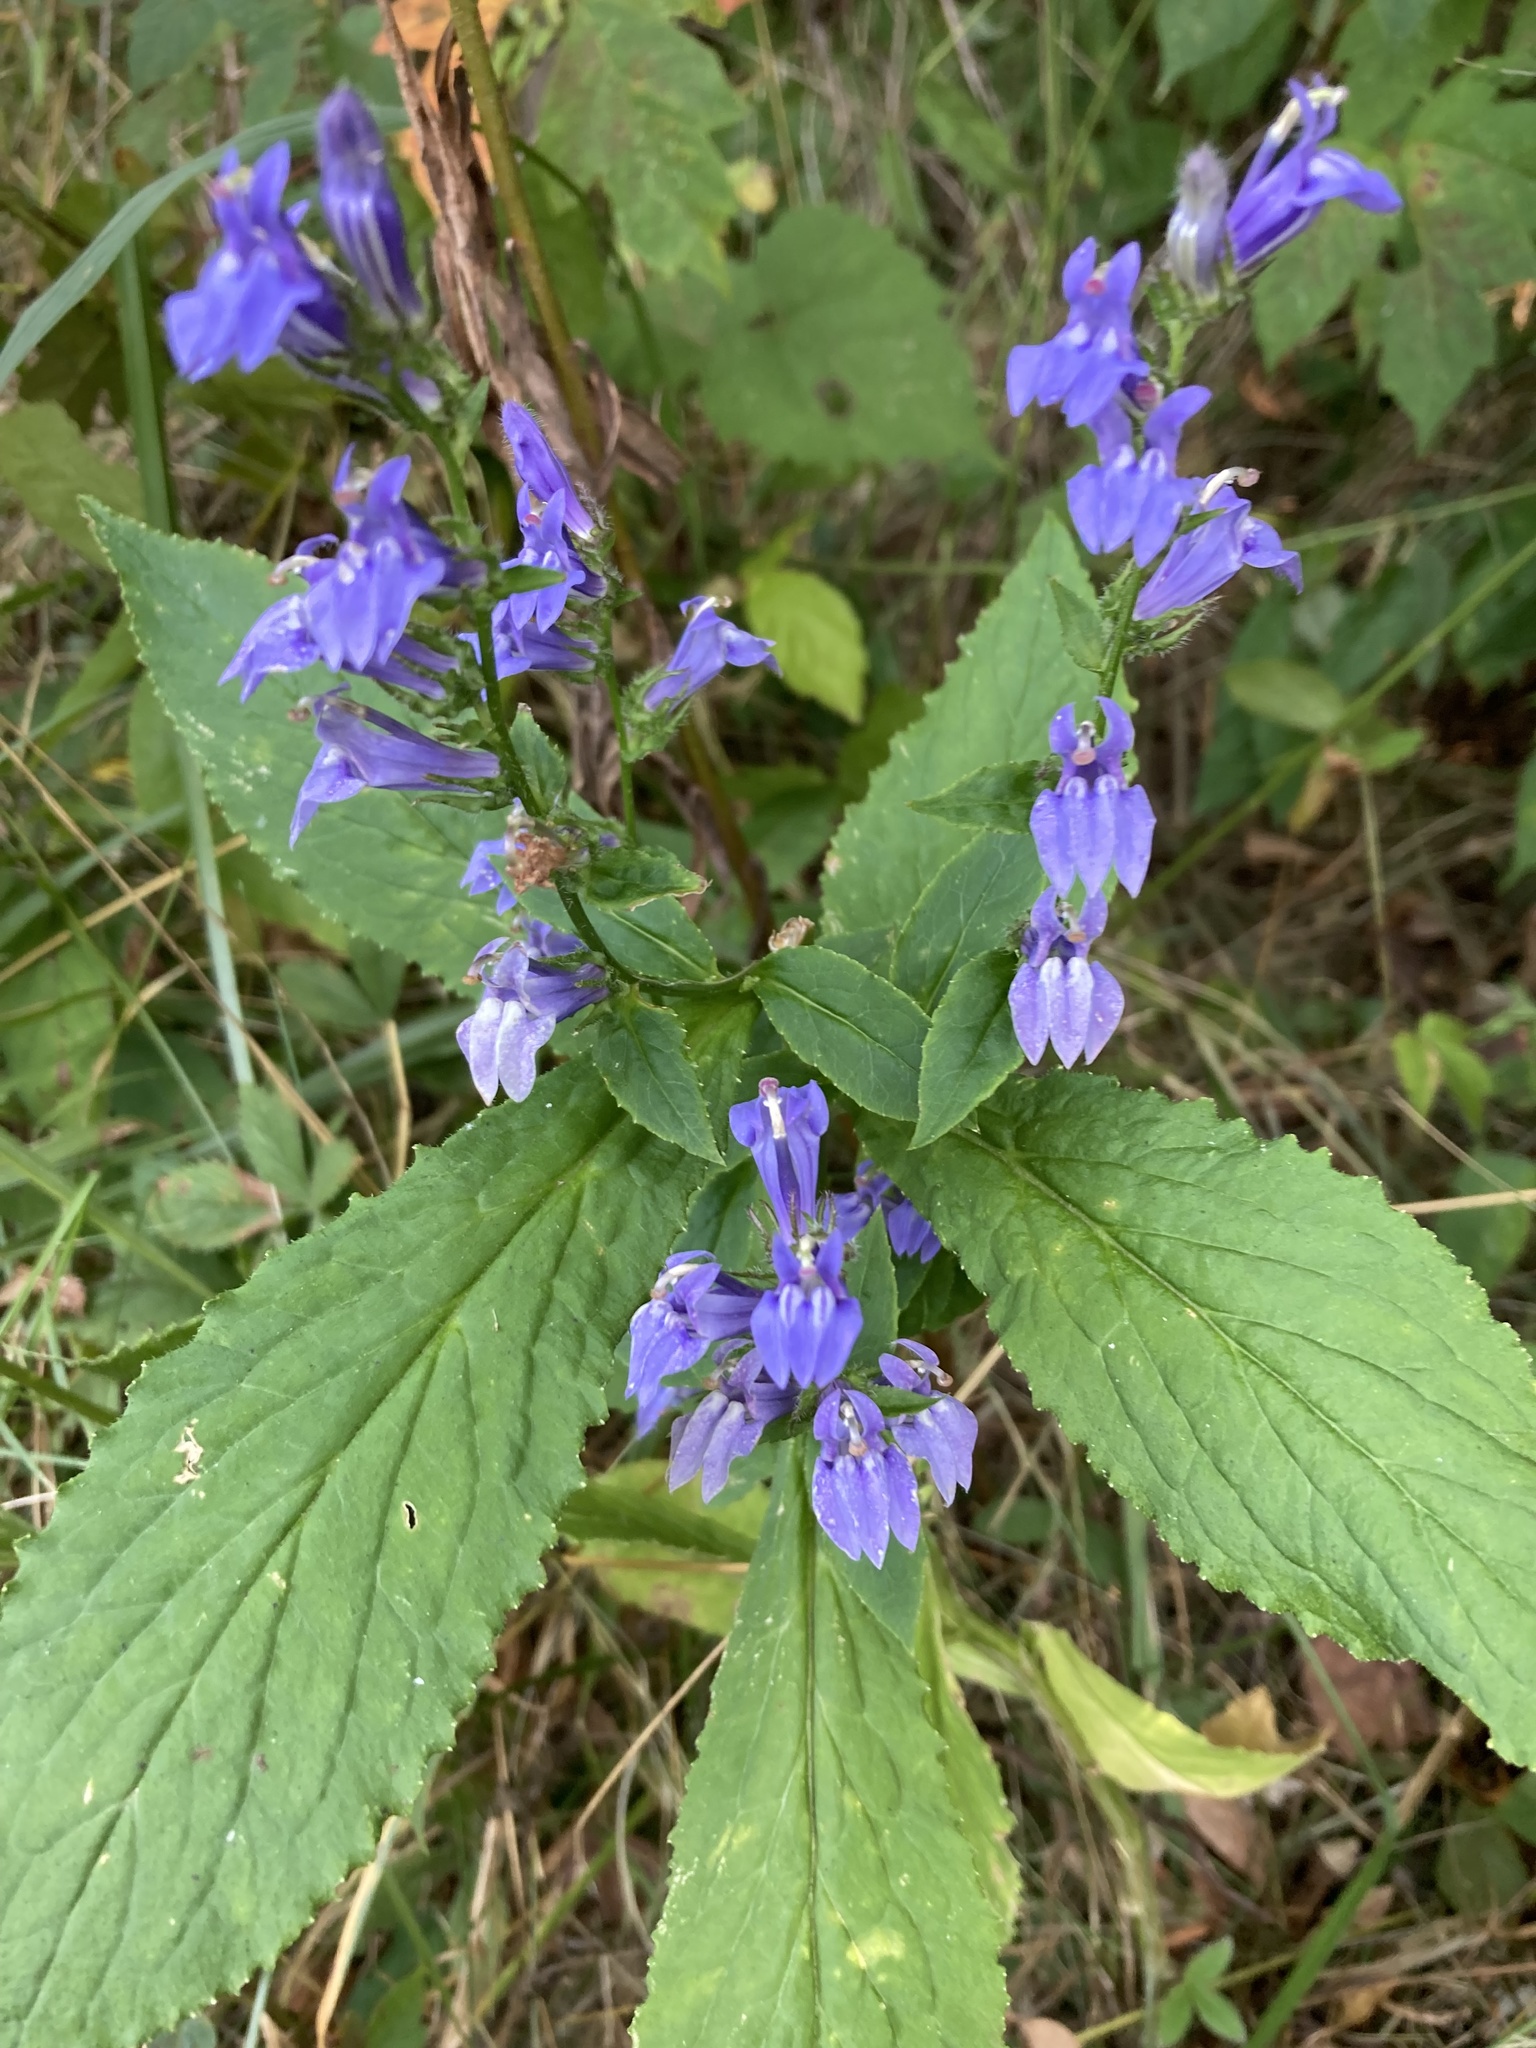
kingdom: Plantae
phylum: Tracheophyta
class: Magnoliopsida
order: Asterales
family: Campanulaceae
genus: Lobelia
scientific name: Lobelia siphilitica
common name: Great lobelia
